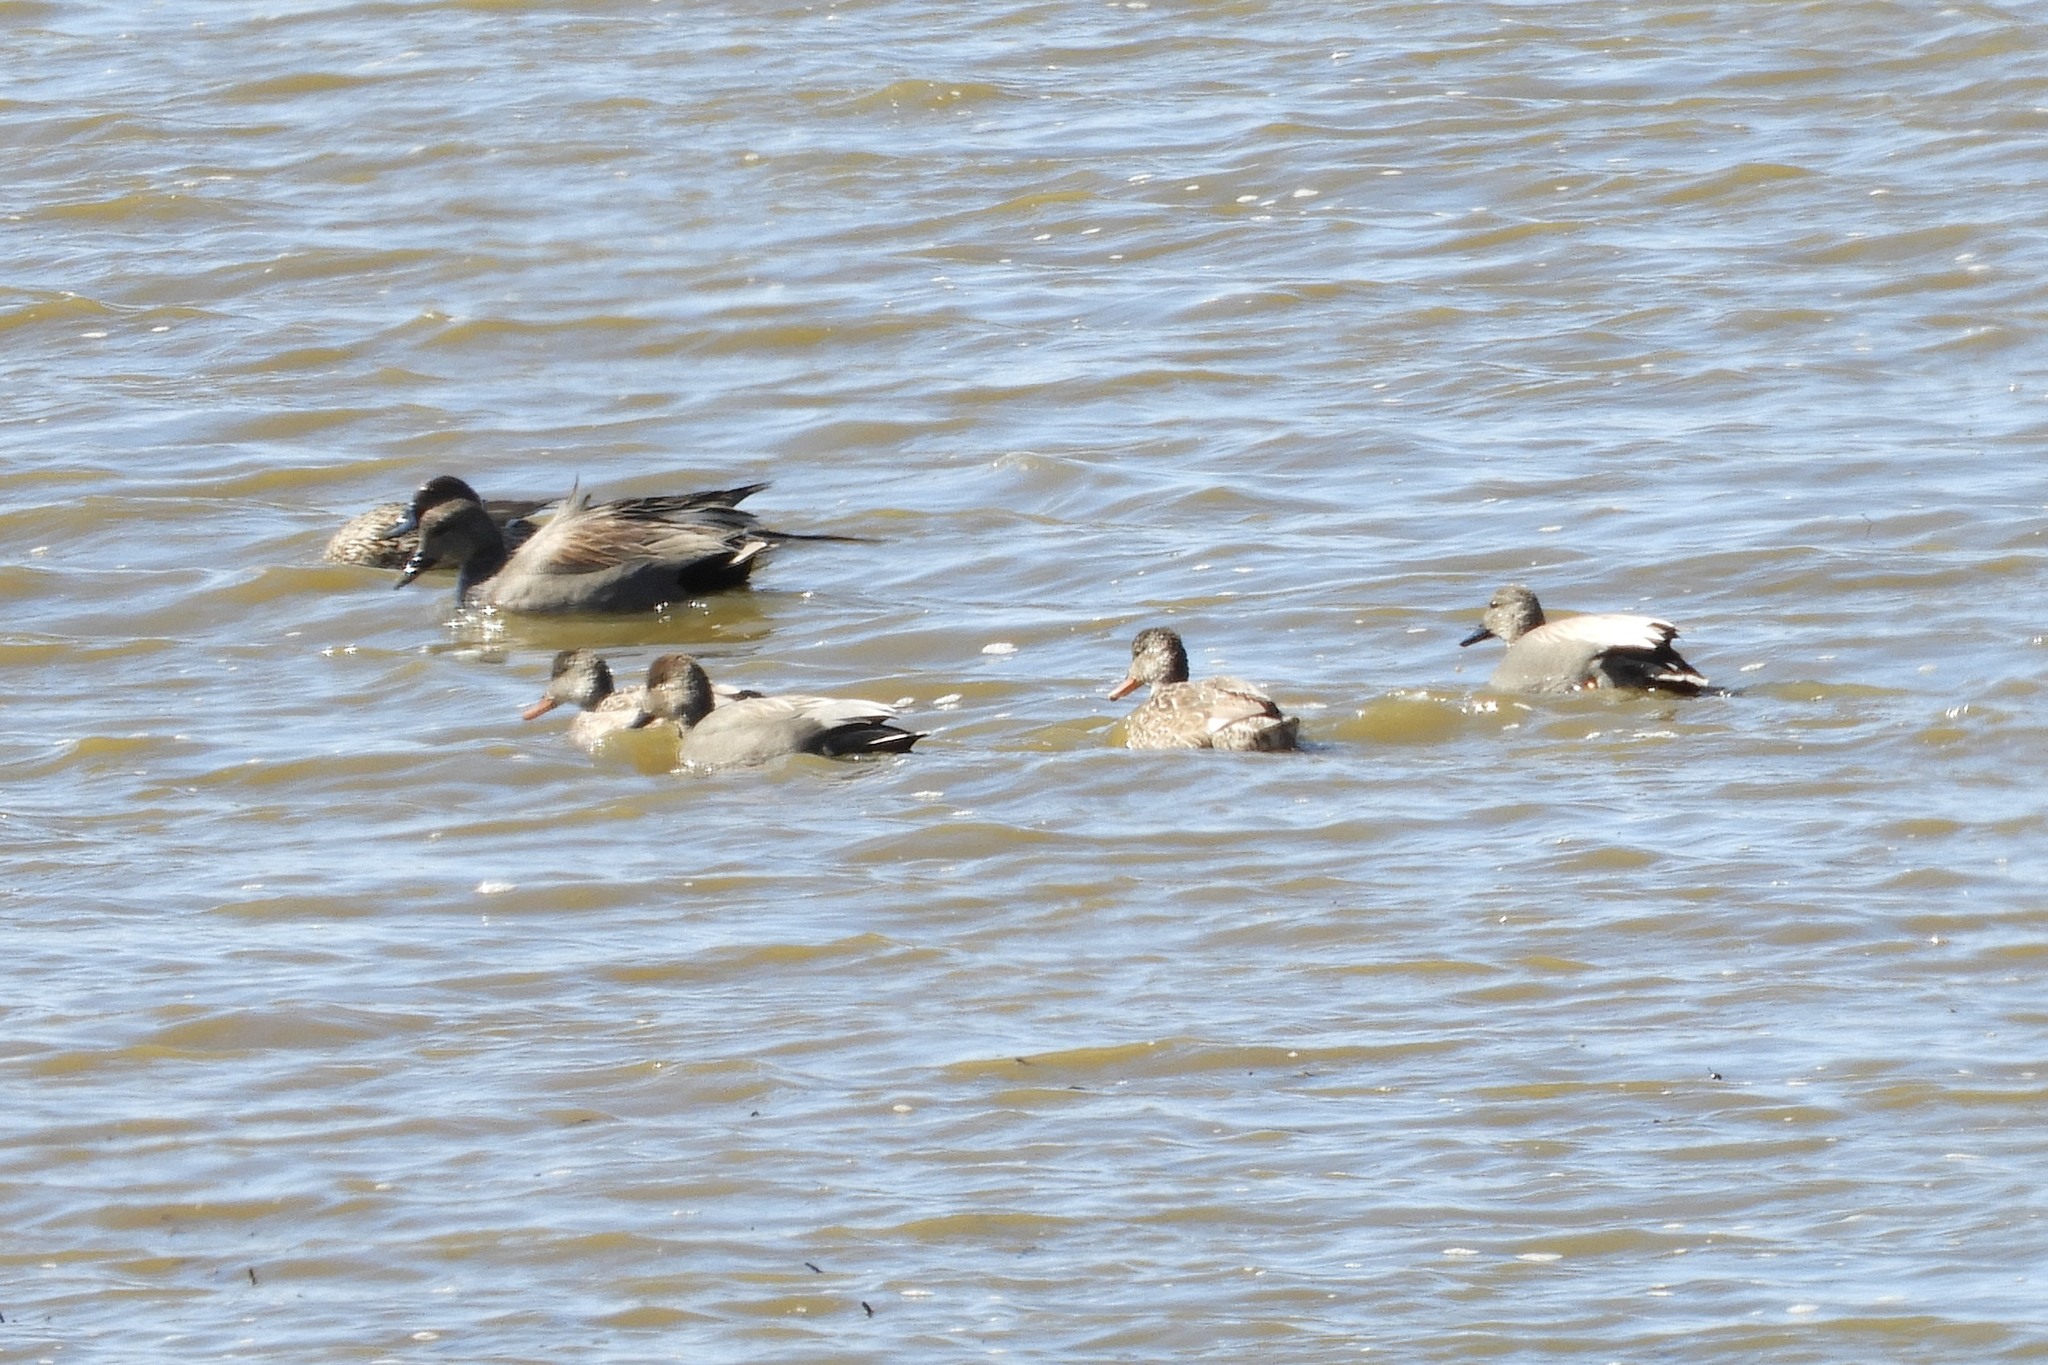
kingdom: Animalia
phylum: Chordata
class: Aves
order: Anseriformes
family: Anatidae
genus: Mareca
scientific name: Mareca strepera
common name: Gadwall
